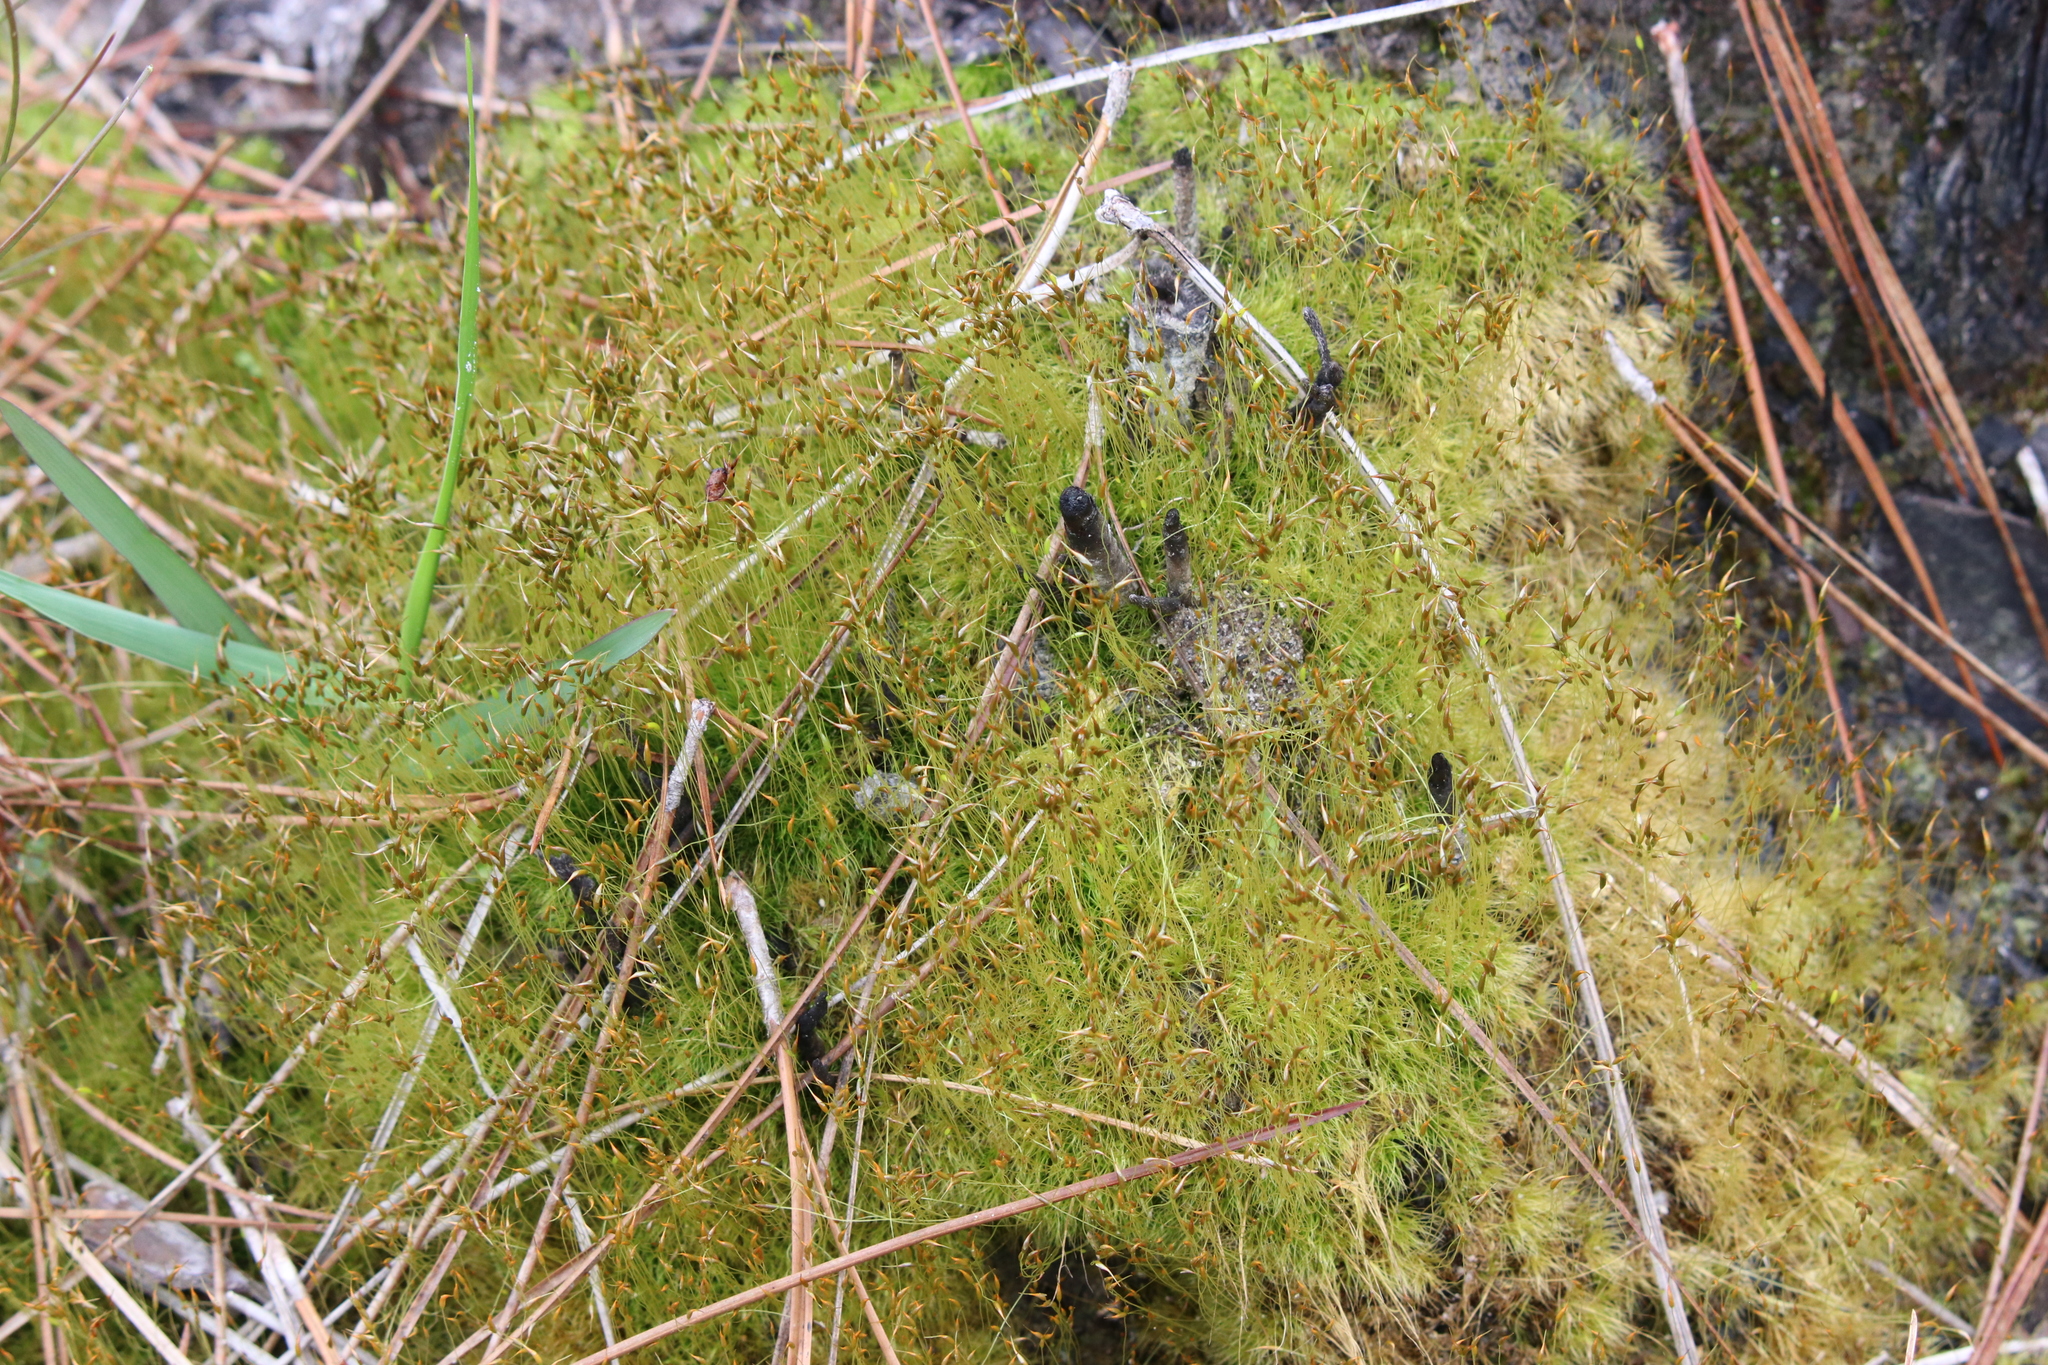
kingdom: Plantae
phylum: Bryophyta
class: Bryopsida
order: Dicranales
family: Ditrichaceae
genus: Ditrichum
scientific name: Ditrichum pallidum
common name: Pale cow-hair moss
